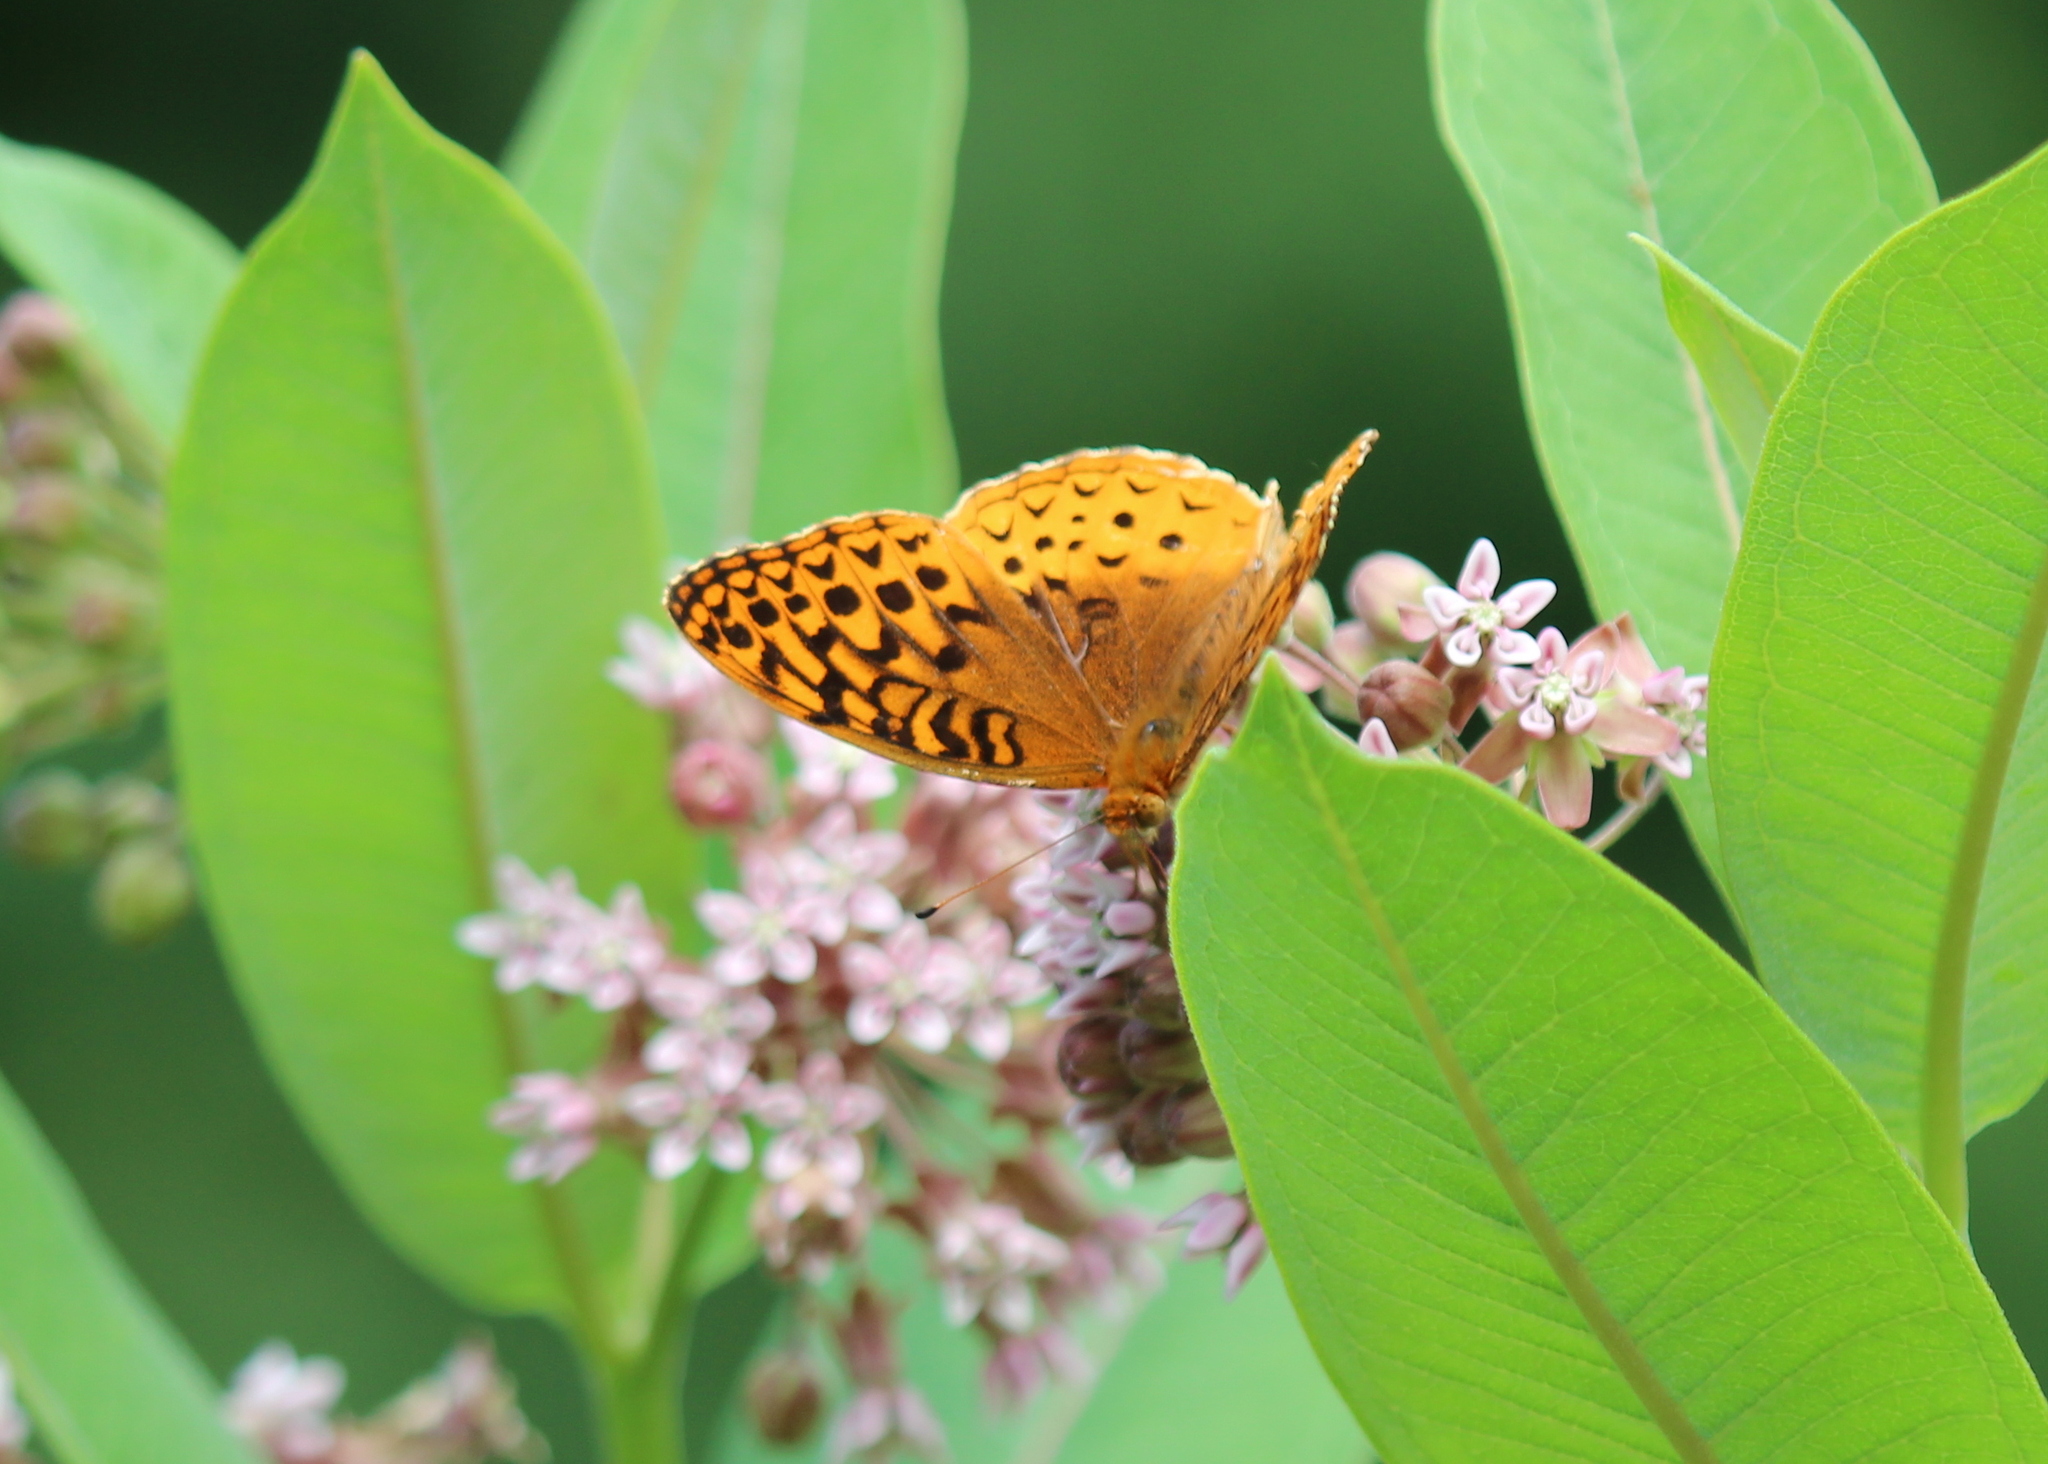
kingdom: Animalia
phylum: Arthropoda
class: Insecta
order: Lepidoptera
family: Nymphalidae
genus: Speyeria
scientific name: Speyeria cybele
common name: Great spangled fritillary
